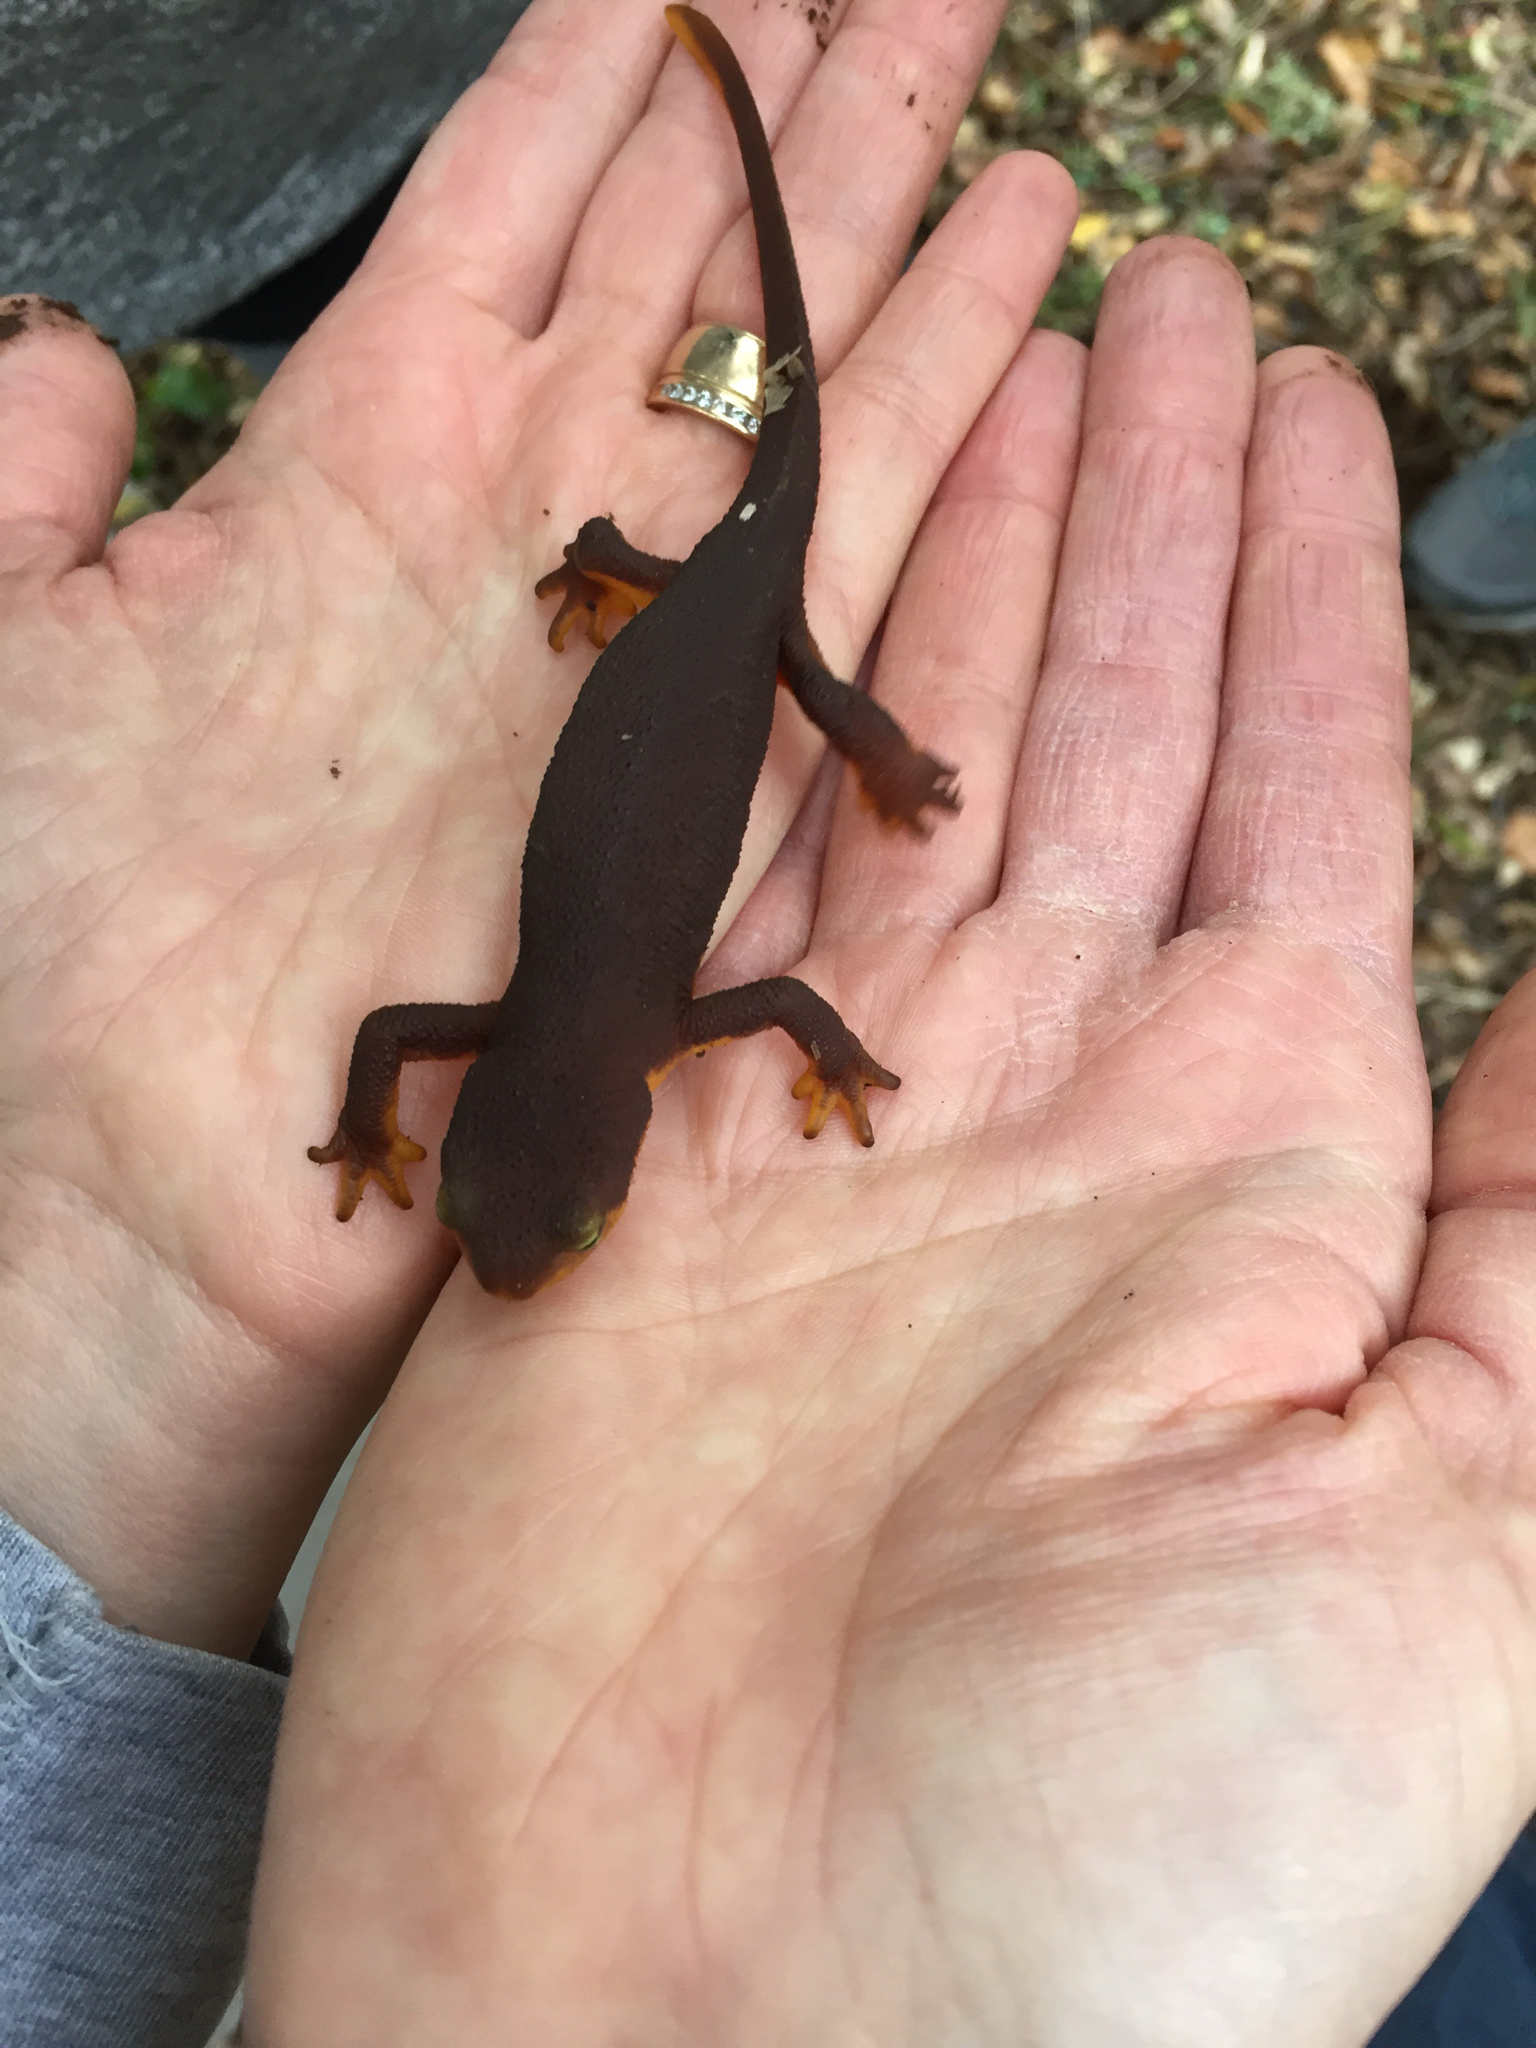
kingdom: Animalia
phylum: Chordata
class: Amphibia
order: Caudata
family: Salamandridae
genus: Taricha
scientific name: Taricha torosa
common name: California newt
